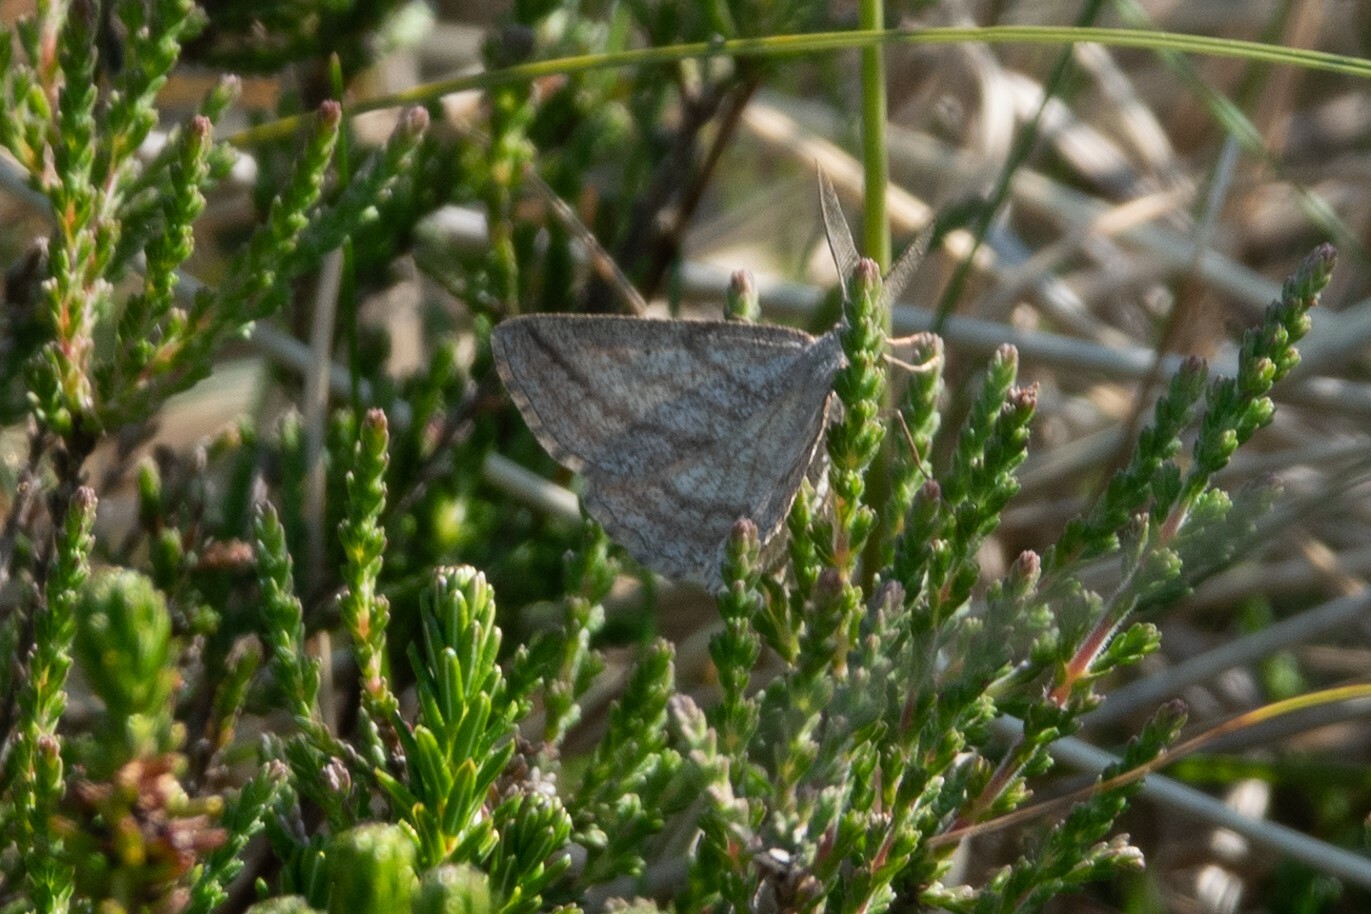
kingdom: Animalia
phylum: Arthropoda
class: Insecta
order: Lepidoptera
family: Geometridae
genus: Perconia
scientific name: Perconia strigillaria
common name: Grass wave
